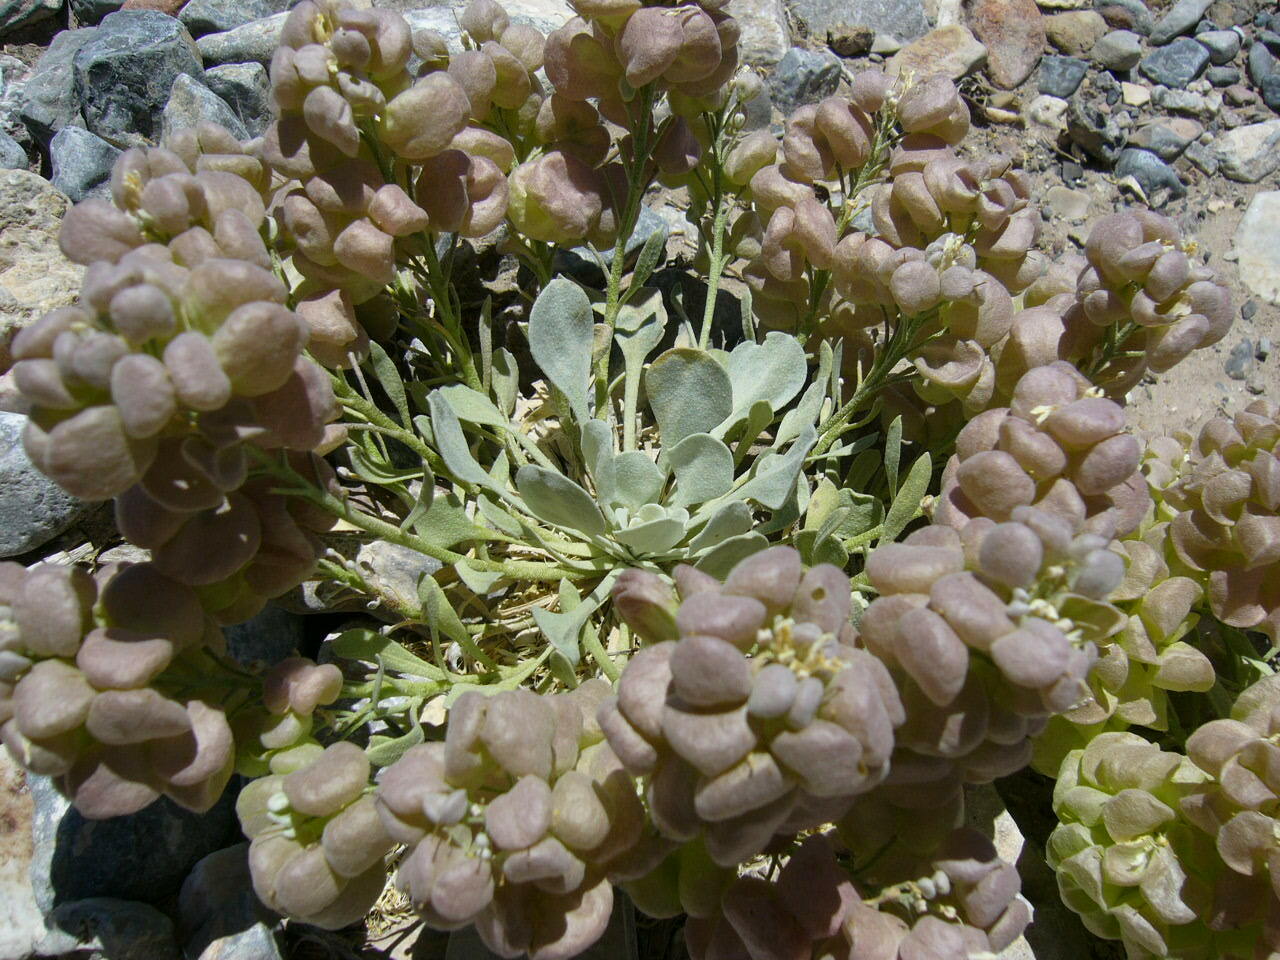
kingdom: Plantae
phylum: Tracheophyta
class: Magnoliopsida
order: Brassicales
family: Brassicaceae
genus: Physaria
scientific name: Physaria chambersii
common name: Chamber's twinpod
